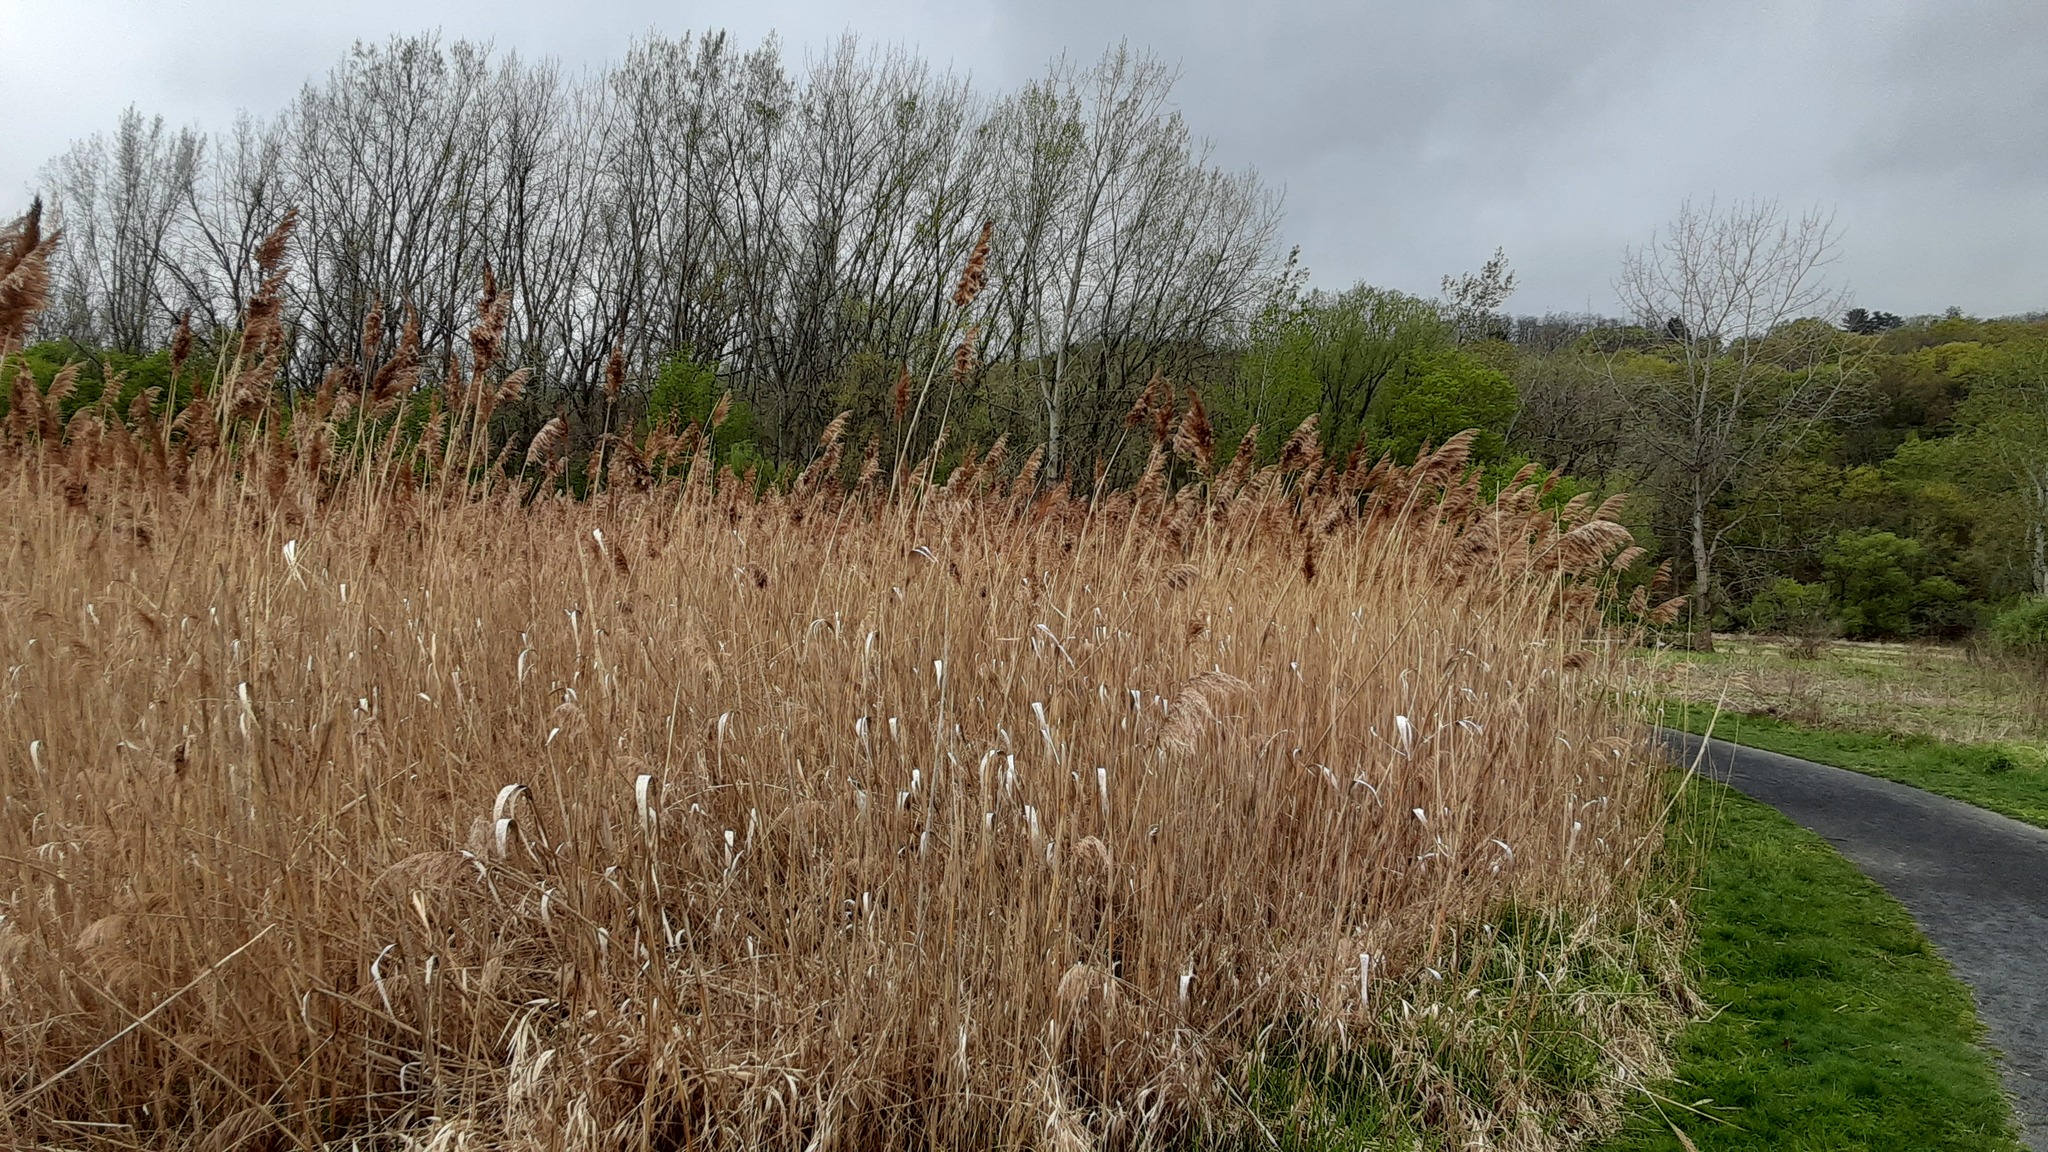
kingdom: Plantae
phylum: Tracheophyta
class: Liliopsida
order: Poales
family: Poaceae
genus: Phragmites
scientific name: Phragmites australis
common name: Common reed
